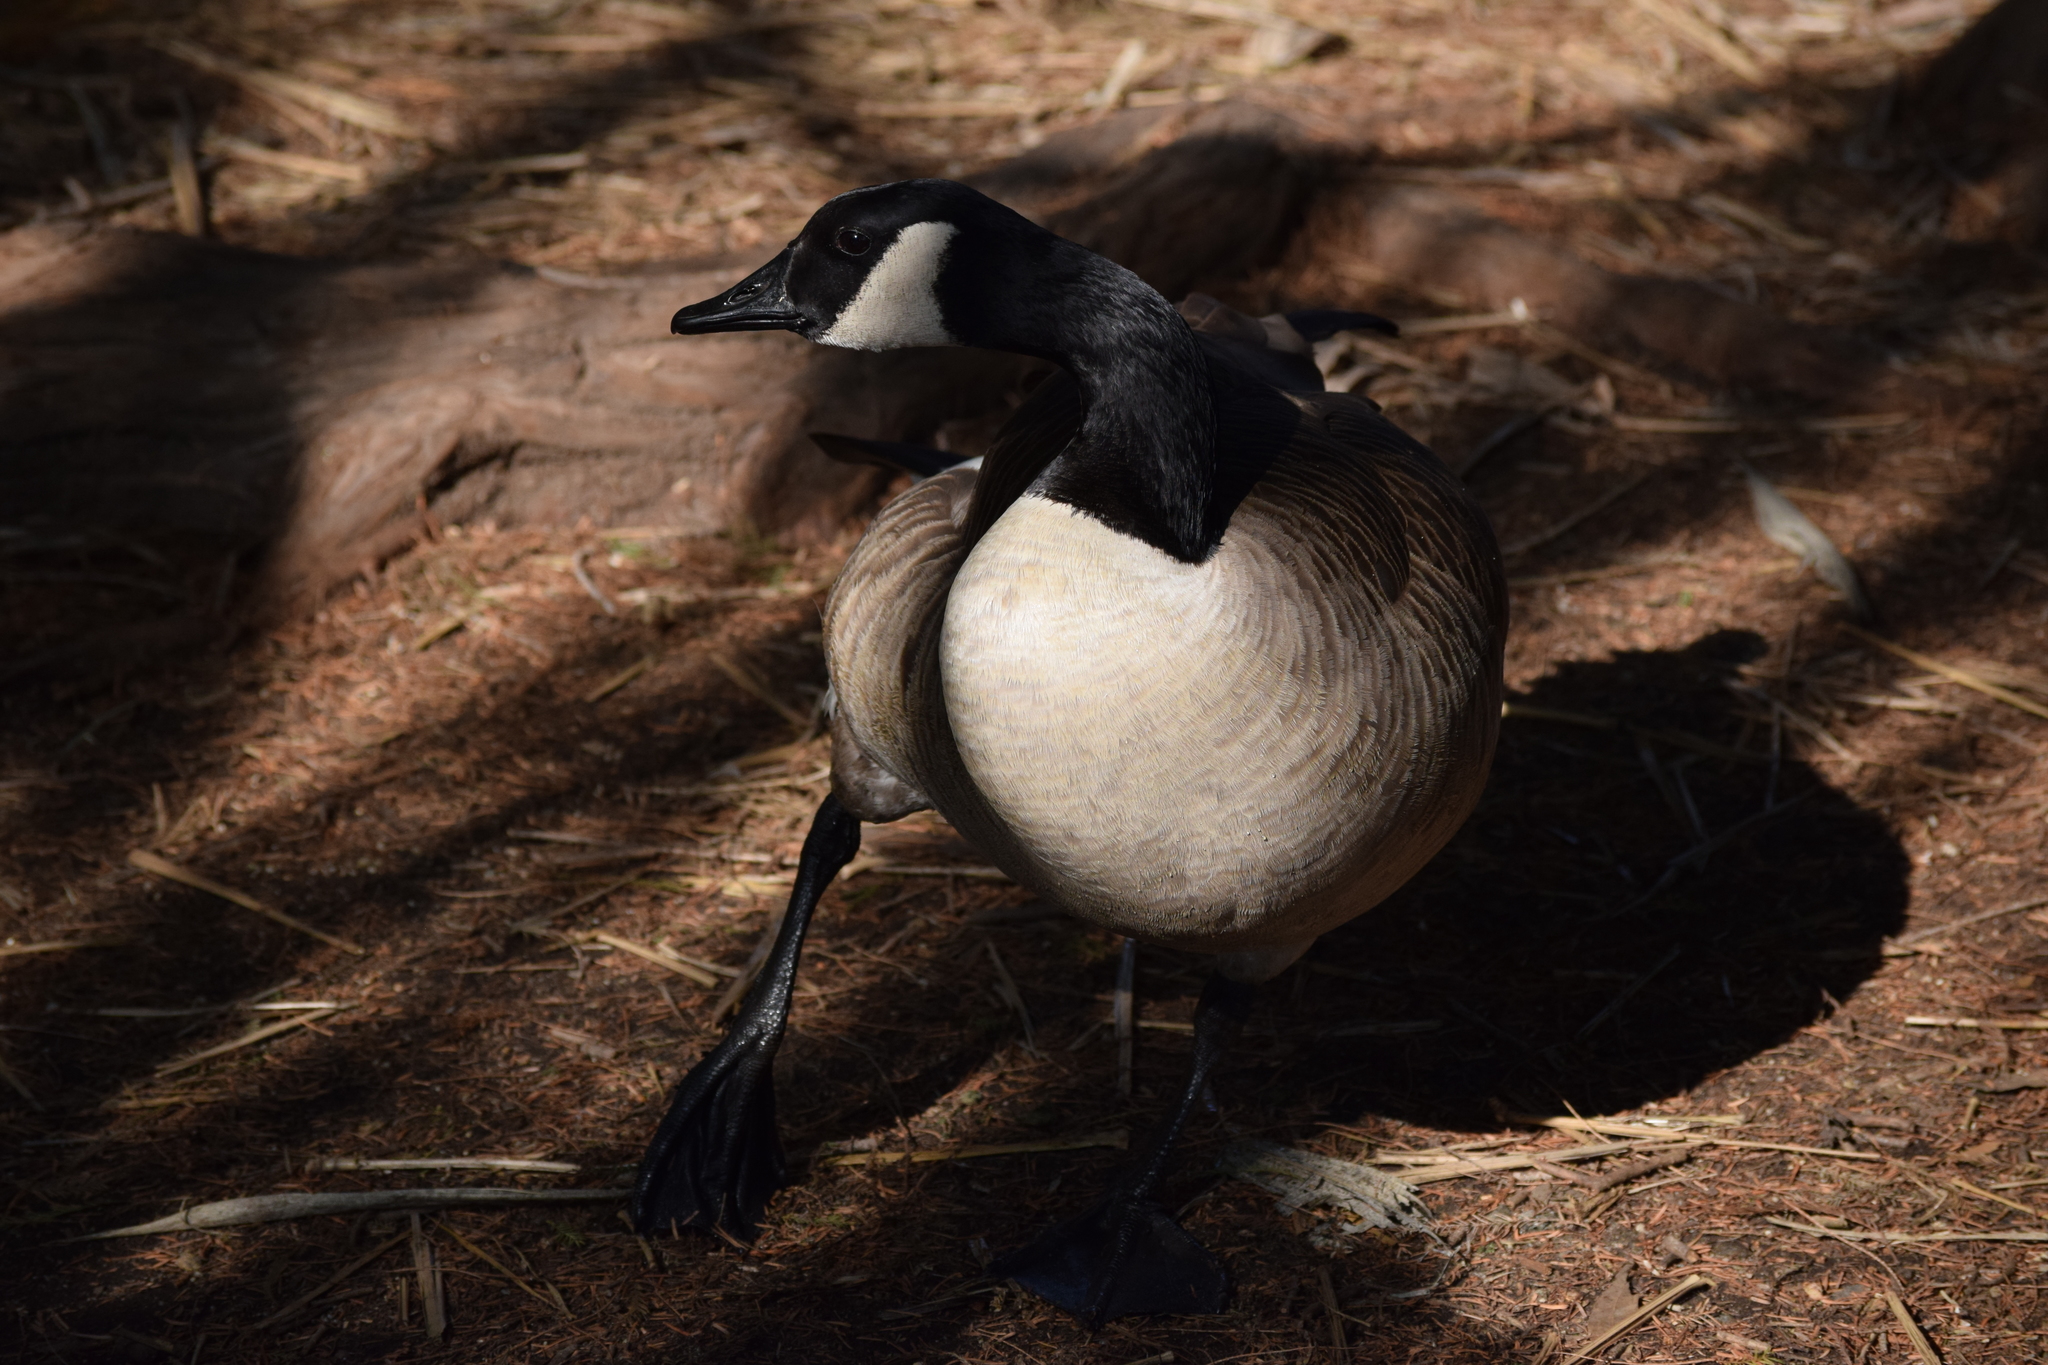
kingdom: Animalia
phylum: Chordata
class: Aves
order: Anseriformes
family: Anatidae
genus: Branta
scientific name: Branta canadensis
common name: Canada goose
